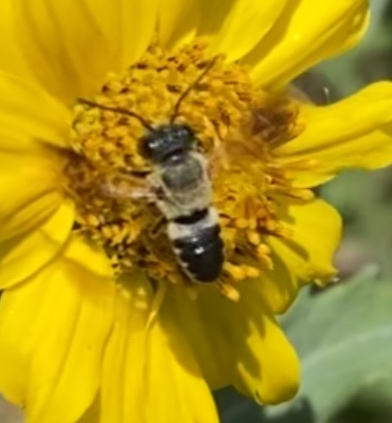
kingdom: Animalia
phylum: Arthropoda
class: Insecta
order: Hymenoptera
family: Megachilidae
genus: Megachile
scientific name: Megachile umbripennis
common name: Shadow-winged resin bee
